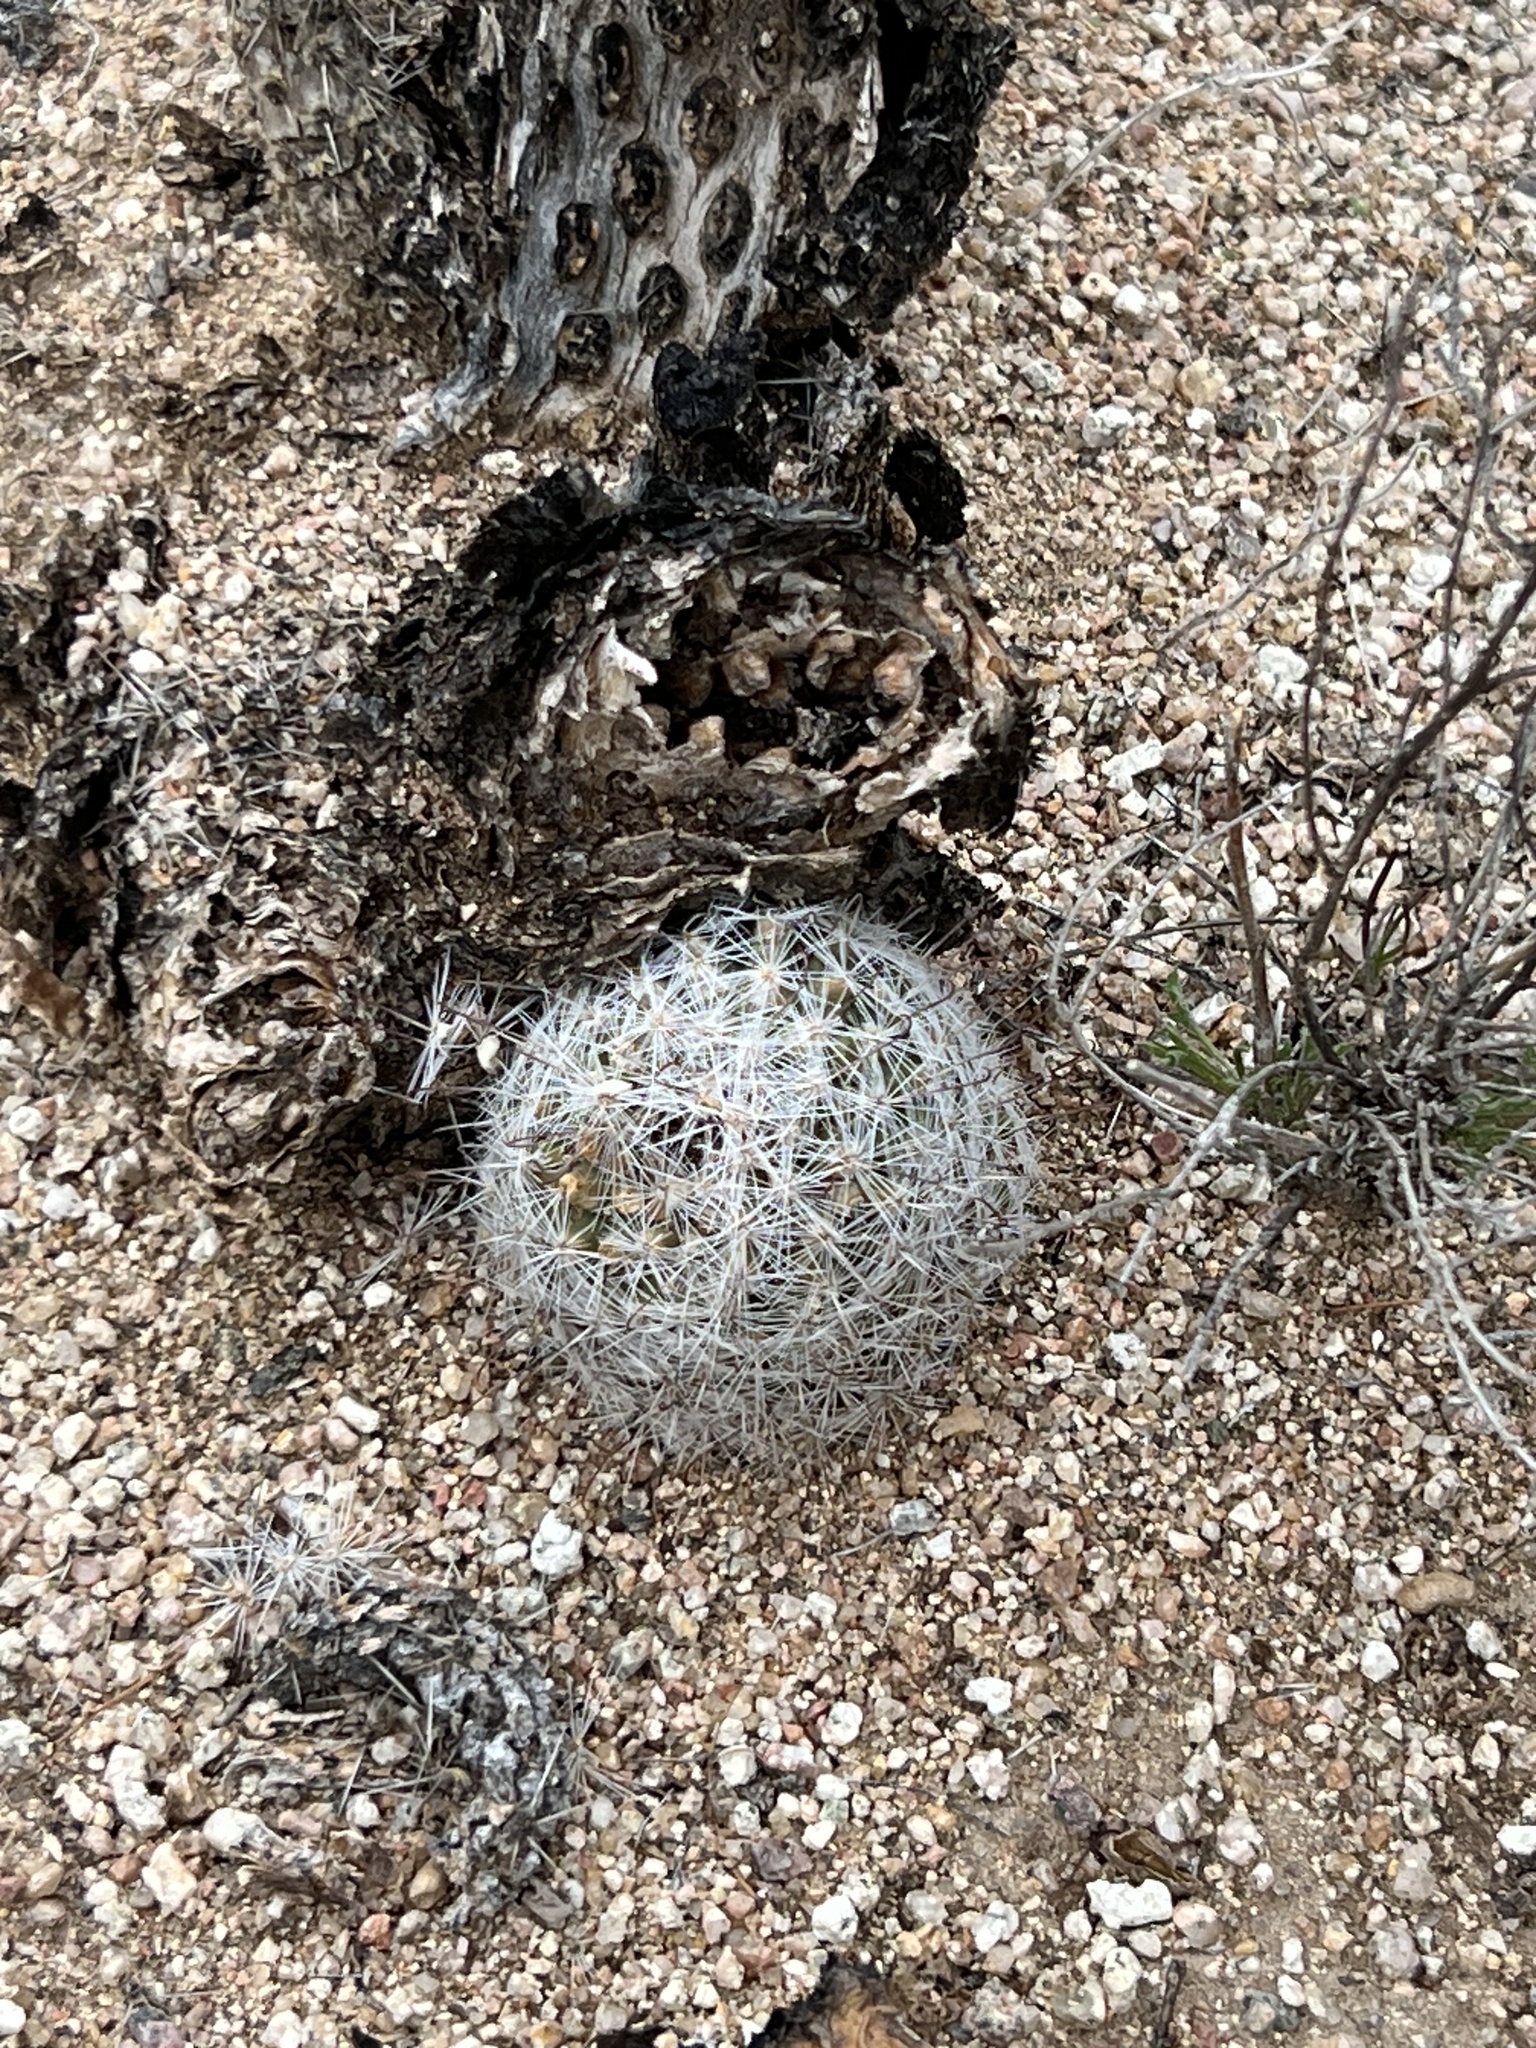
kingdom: Plantae
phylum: Tracheophyta
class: Magnoliopsida
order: Caryophyllales
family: Cactaceae
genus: Cochemiea
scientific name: Cochemiea grahamii
